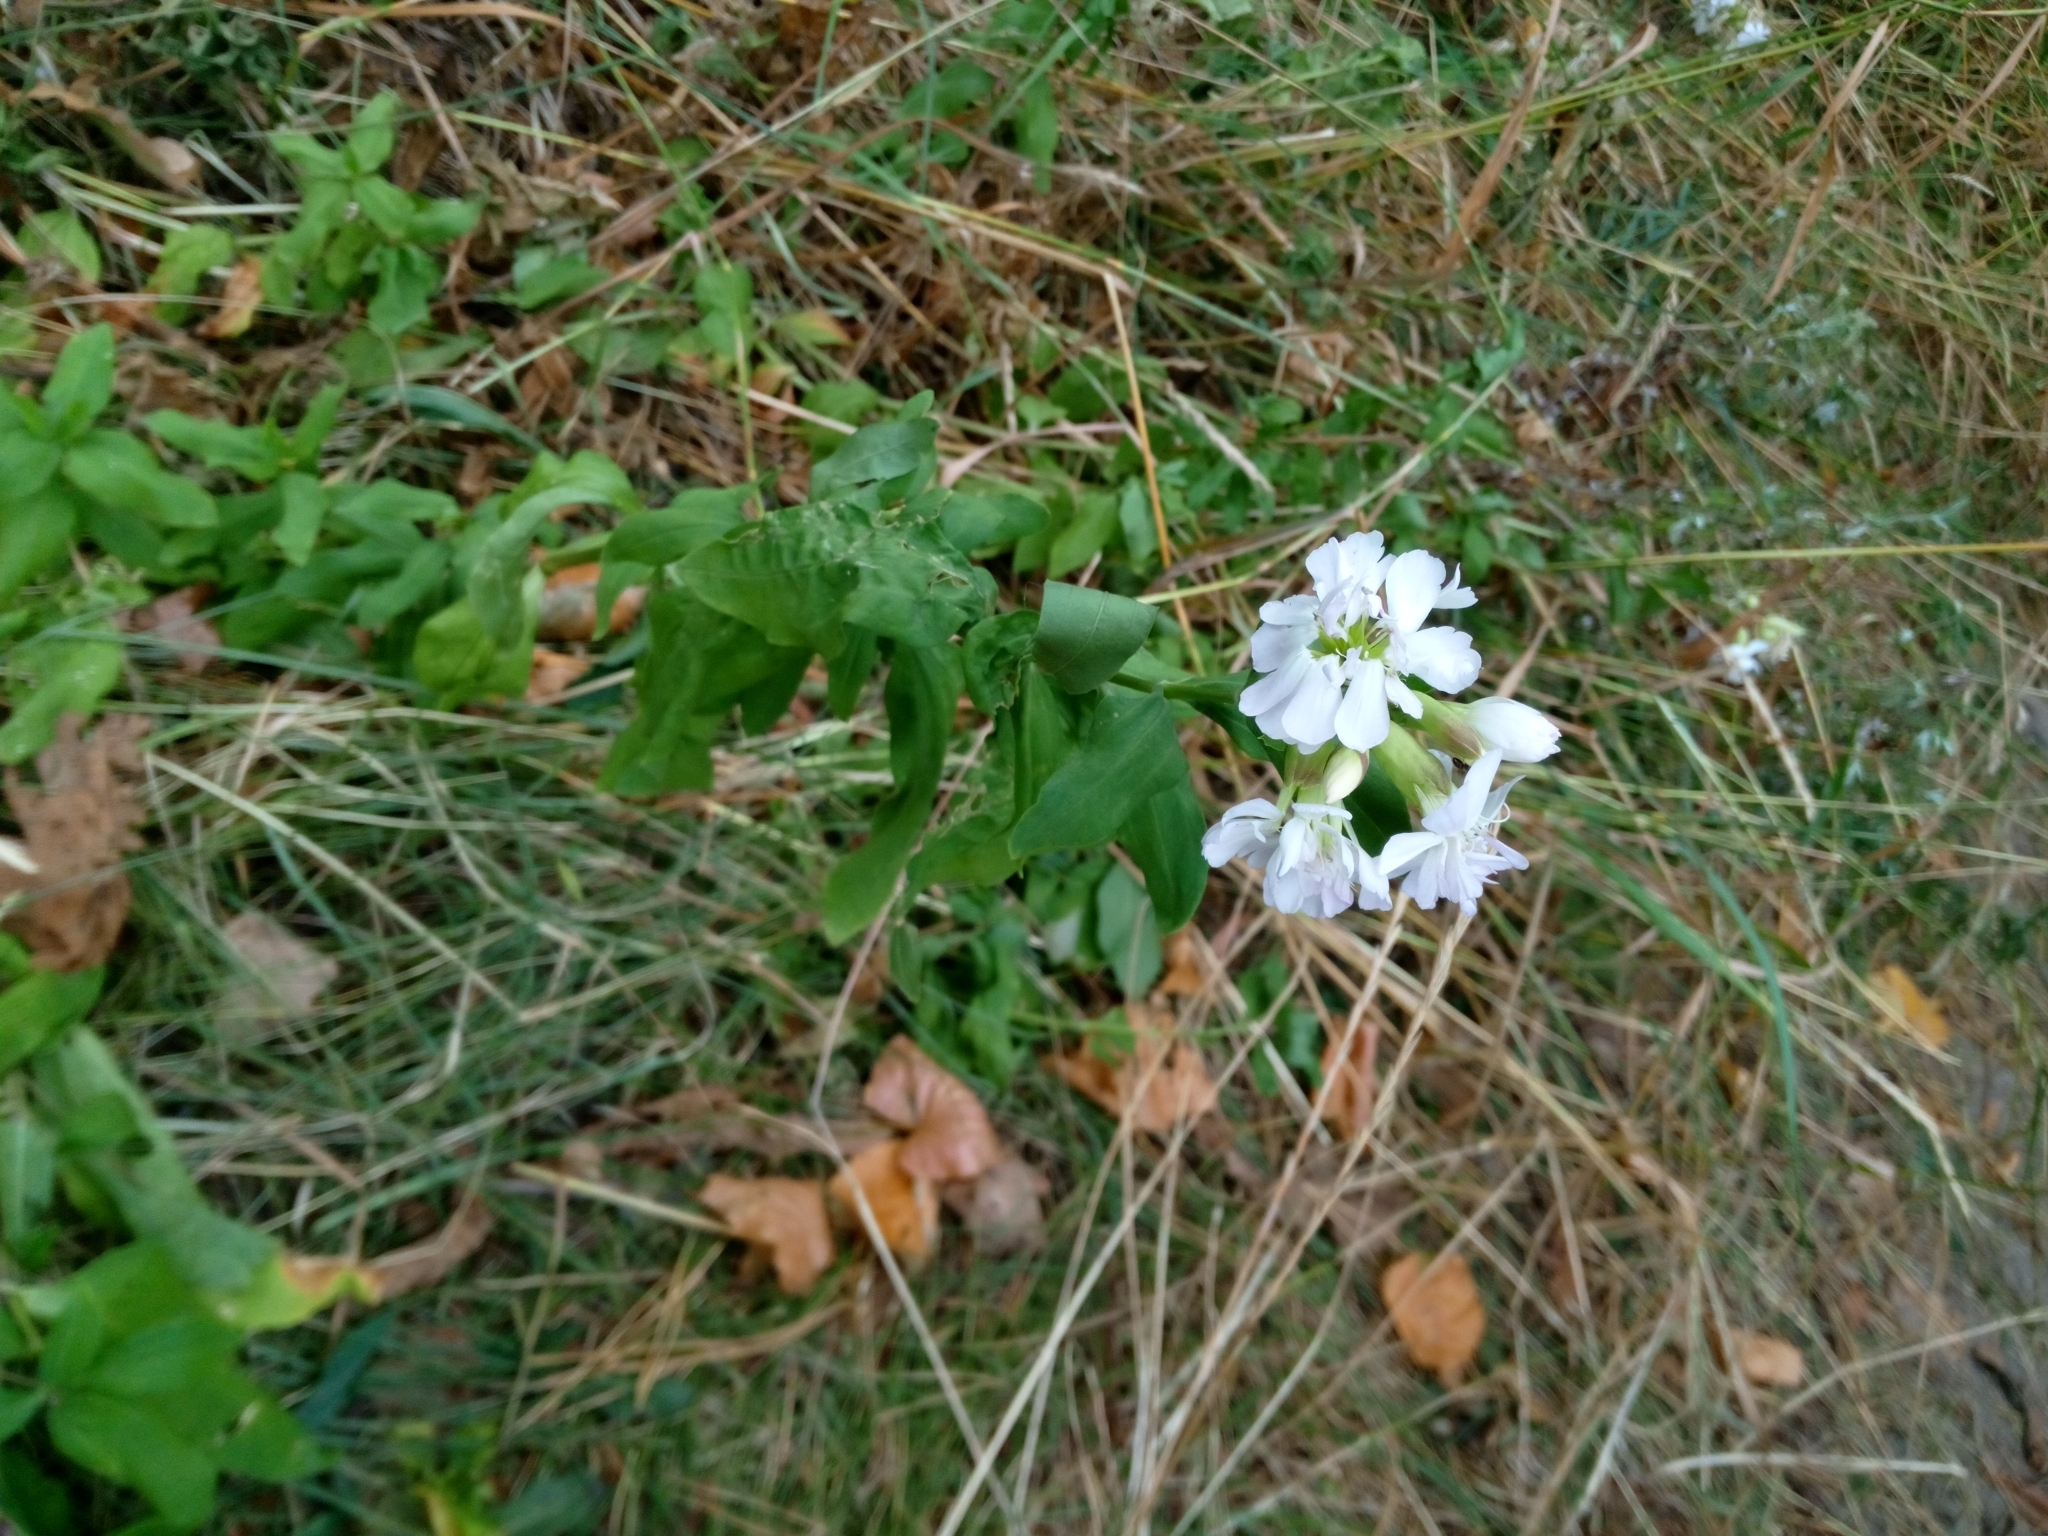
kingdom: Plantae
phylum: Tracheophyta
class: Magnoliopsida
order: Caryophyllales
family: Caryophyllaceae
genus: Saponaria
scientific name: Saponaria officinalis
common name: Soapwort
